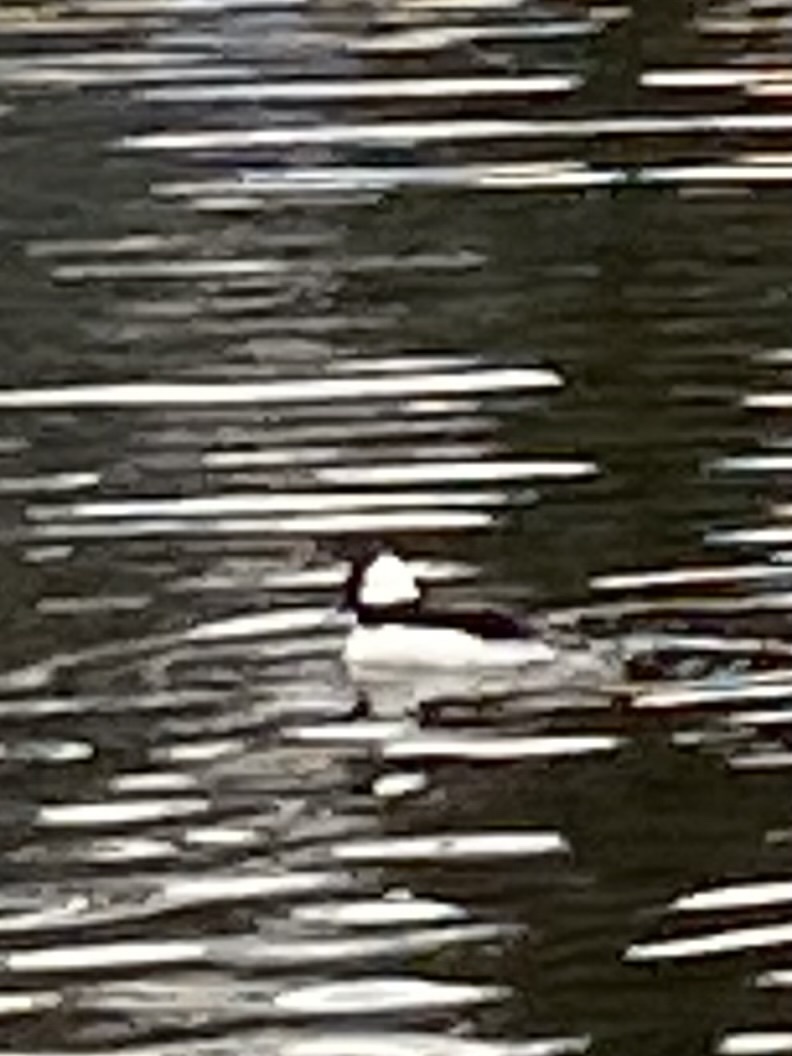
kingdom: Animalia
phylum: Chordata
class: Aves
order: Anseriformes
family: Anatidae
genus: Bucephala
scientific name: Bucephala albeola
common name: Bufflehead
